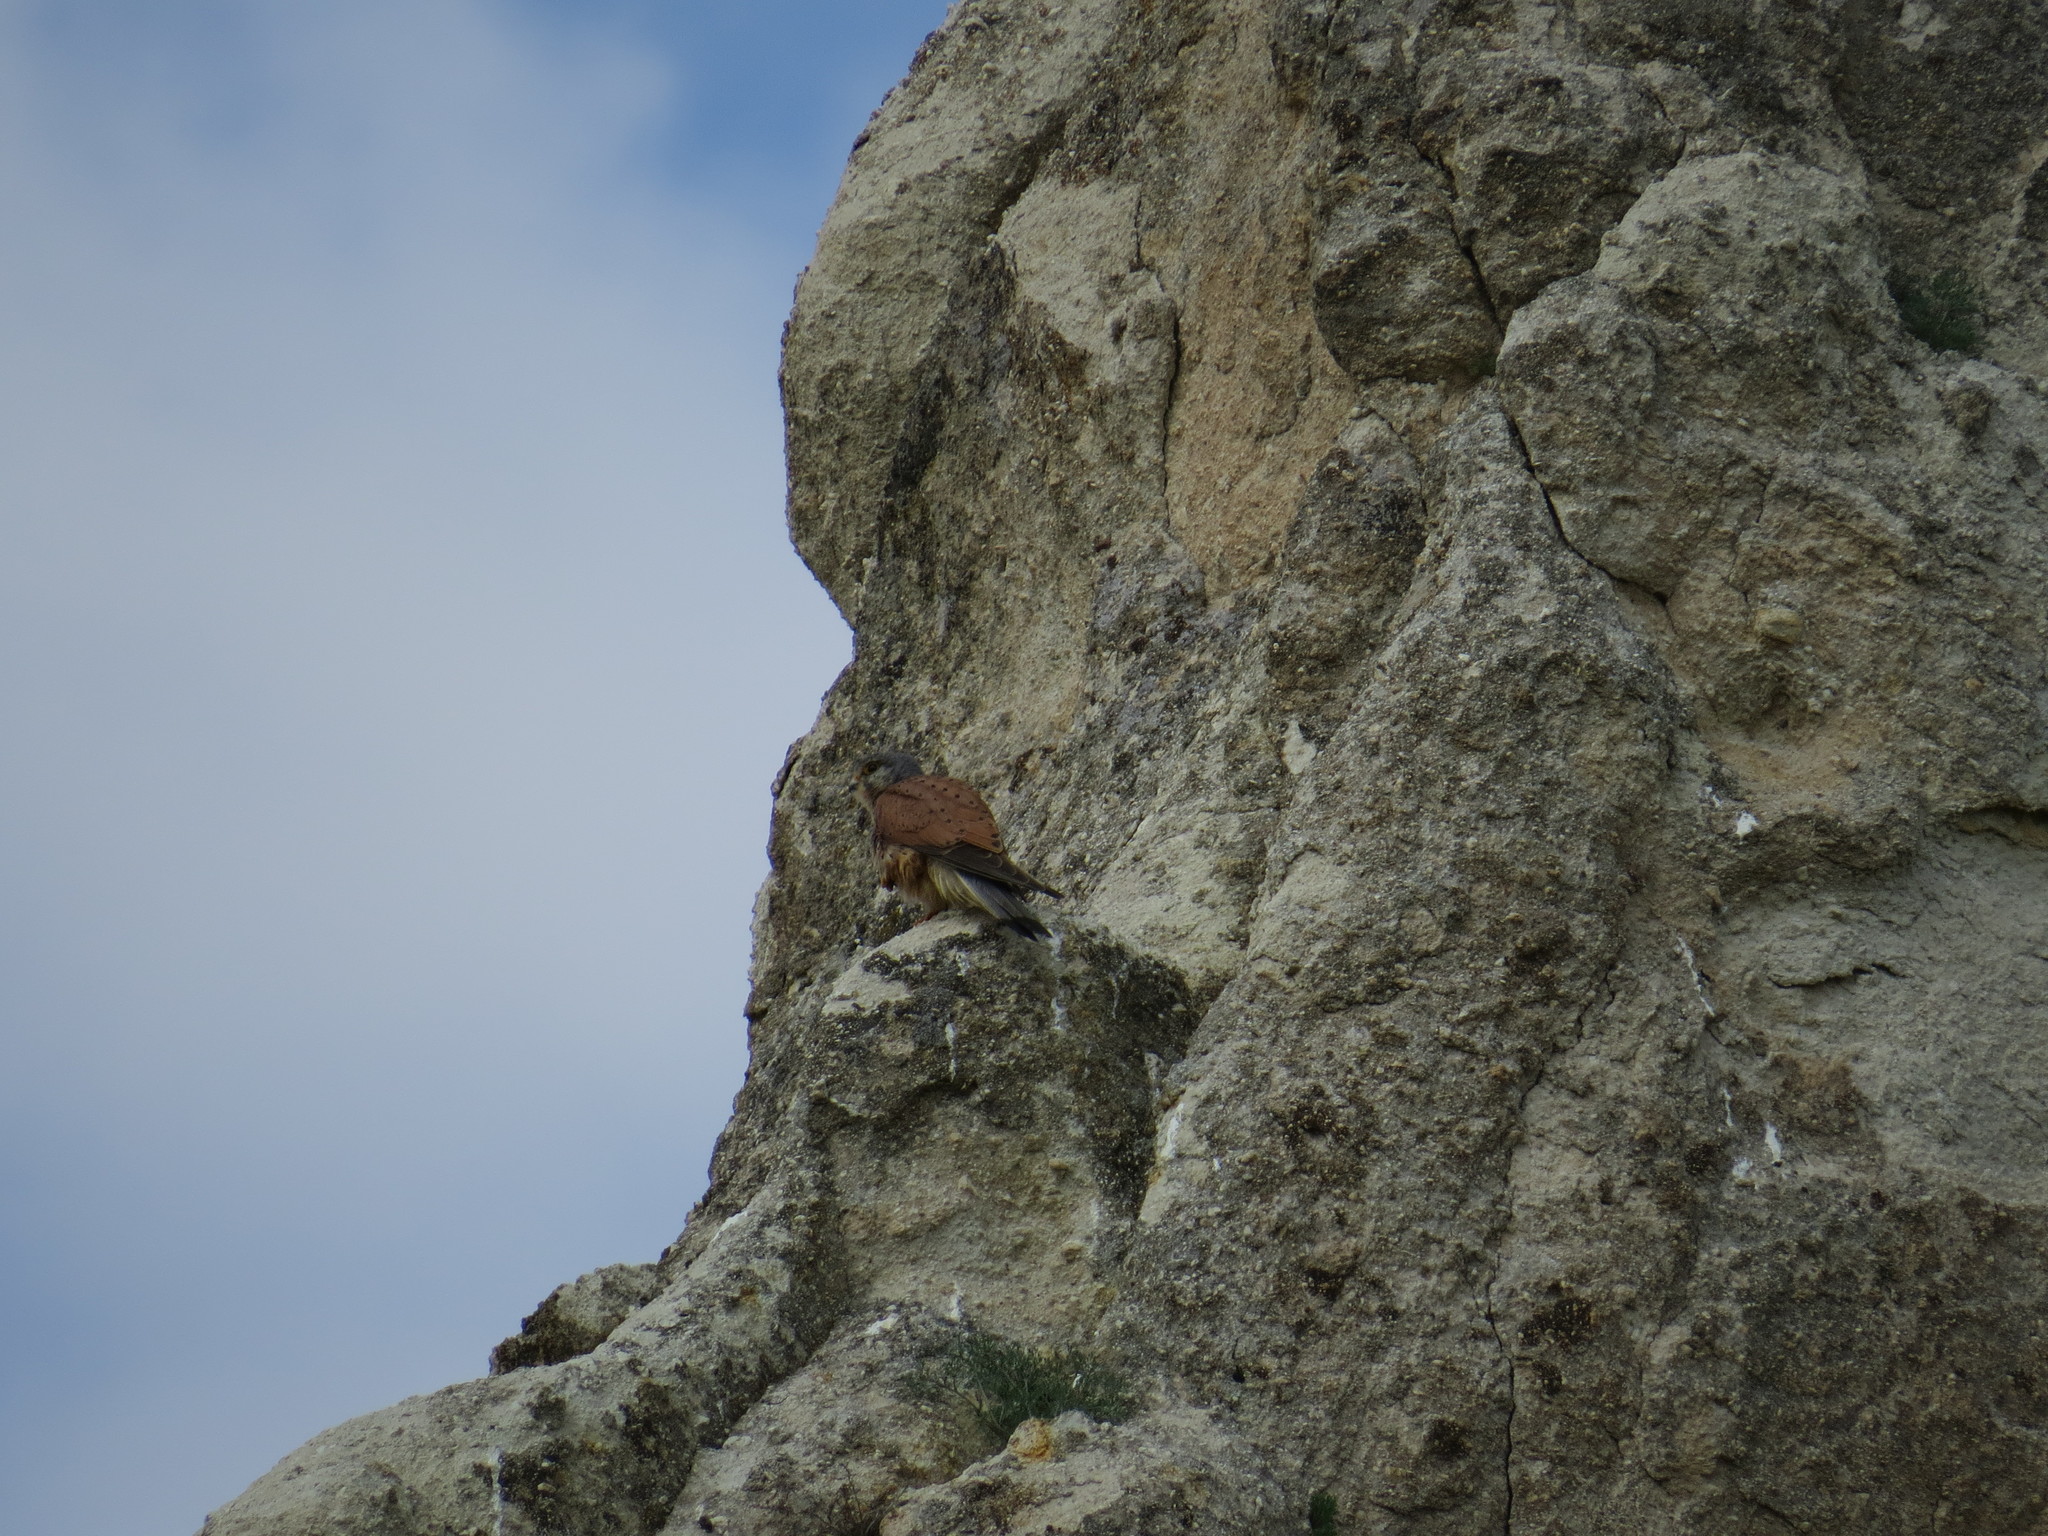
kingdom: Animalia
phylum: Chordata
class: Aves
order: Falconiformes
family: Falconidae
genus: Falco
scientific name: Falco tinnunculus
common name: Common kestrel
